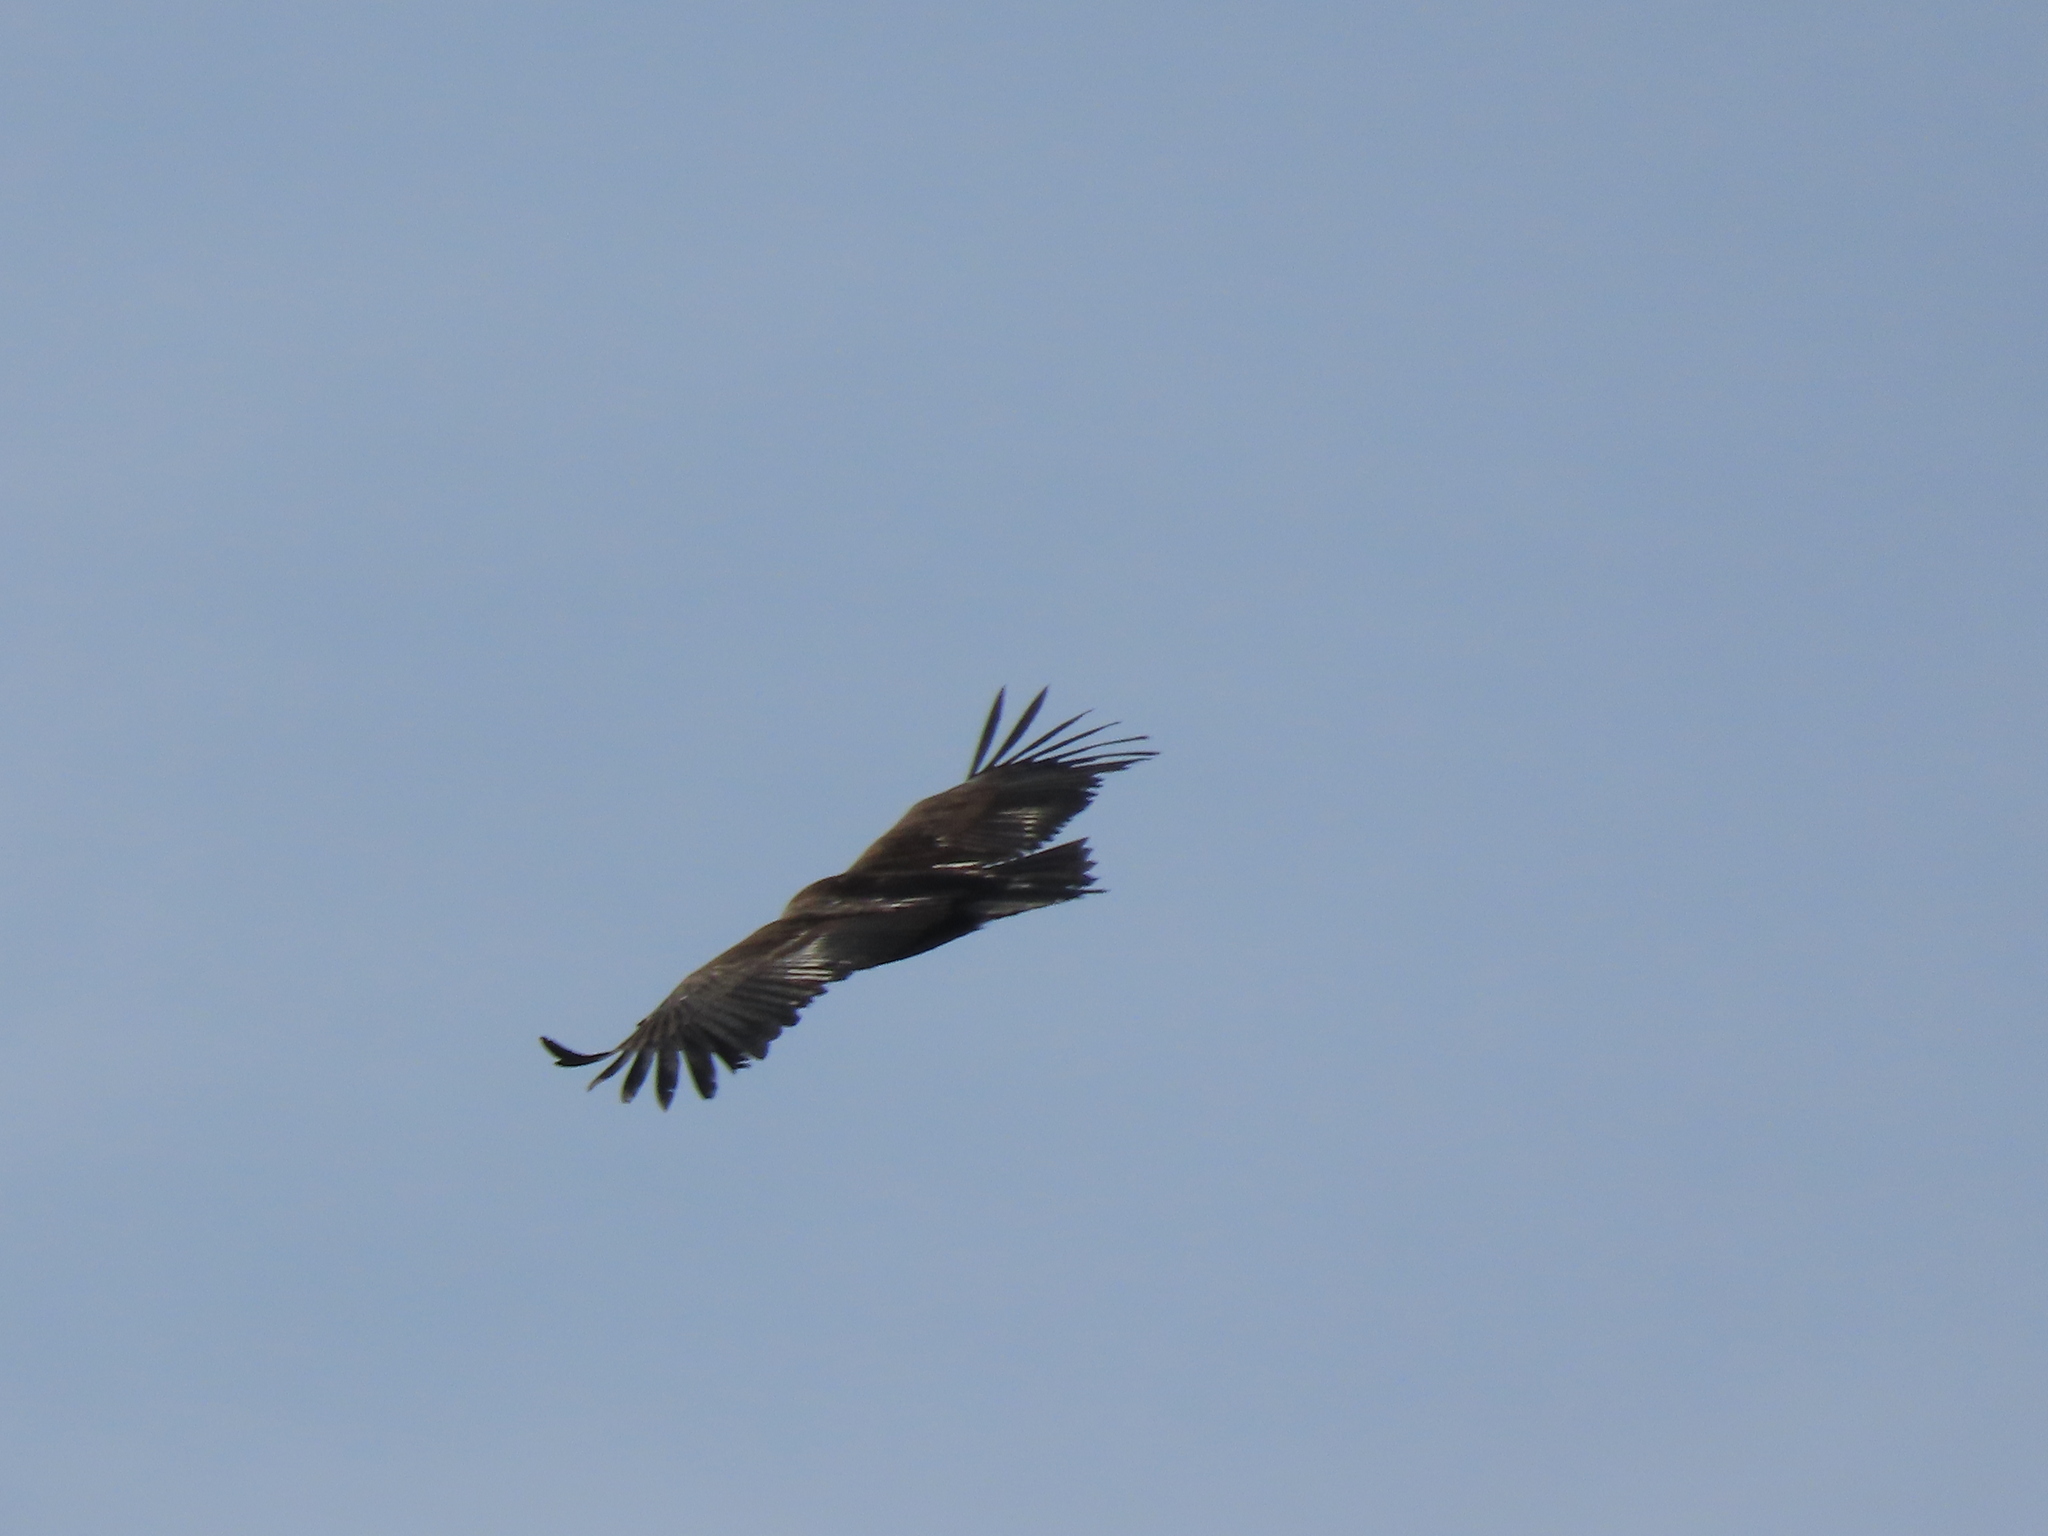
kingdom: Animalia
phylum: Chordata
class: Aves
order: Accipitriformes
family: Accipitridae
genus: Aegypius
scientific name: Aegypius monachus
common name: Cinereous vulture
